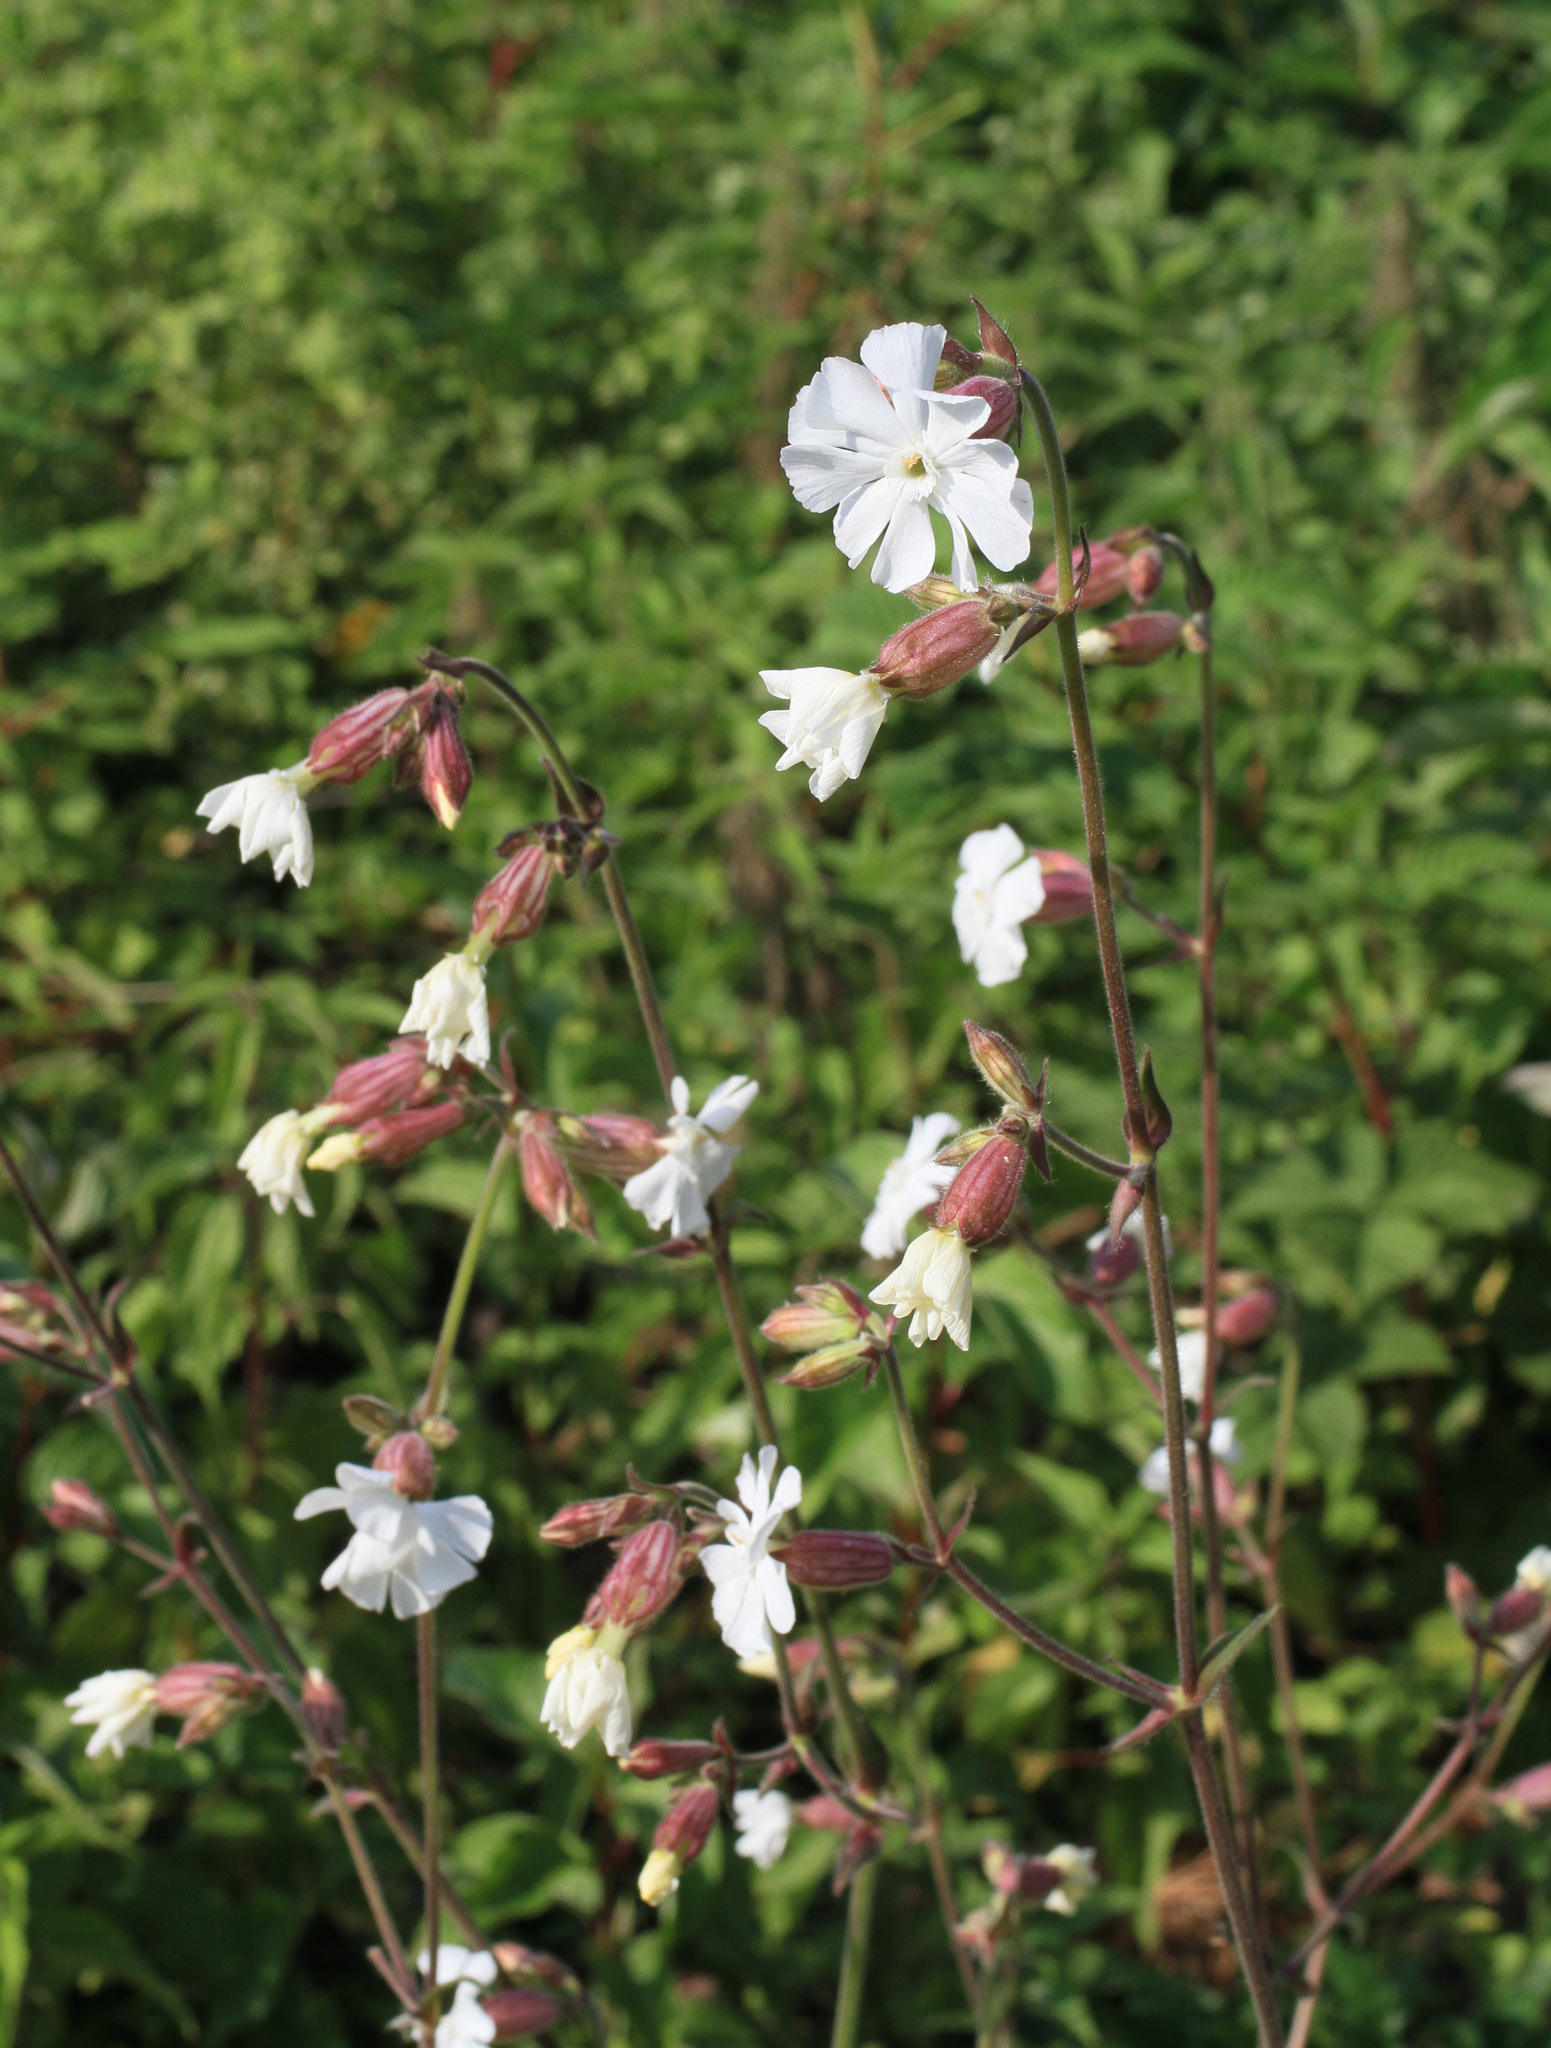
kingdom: Plantae
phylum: Tracheophyta
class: Magnoliopsida
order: Caryophyllales
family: Caryophyllaceae
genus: Silene
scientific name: Silene latifolia
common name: White campion
